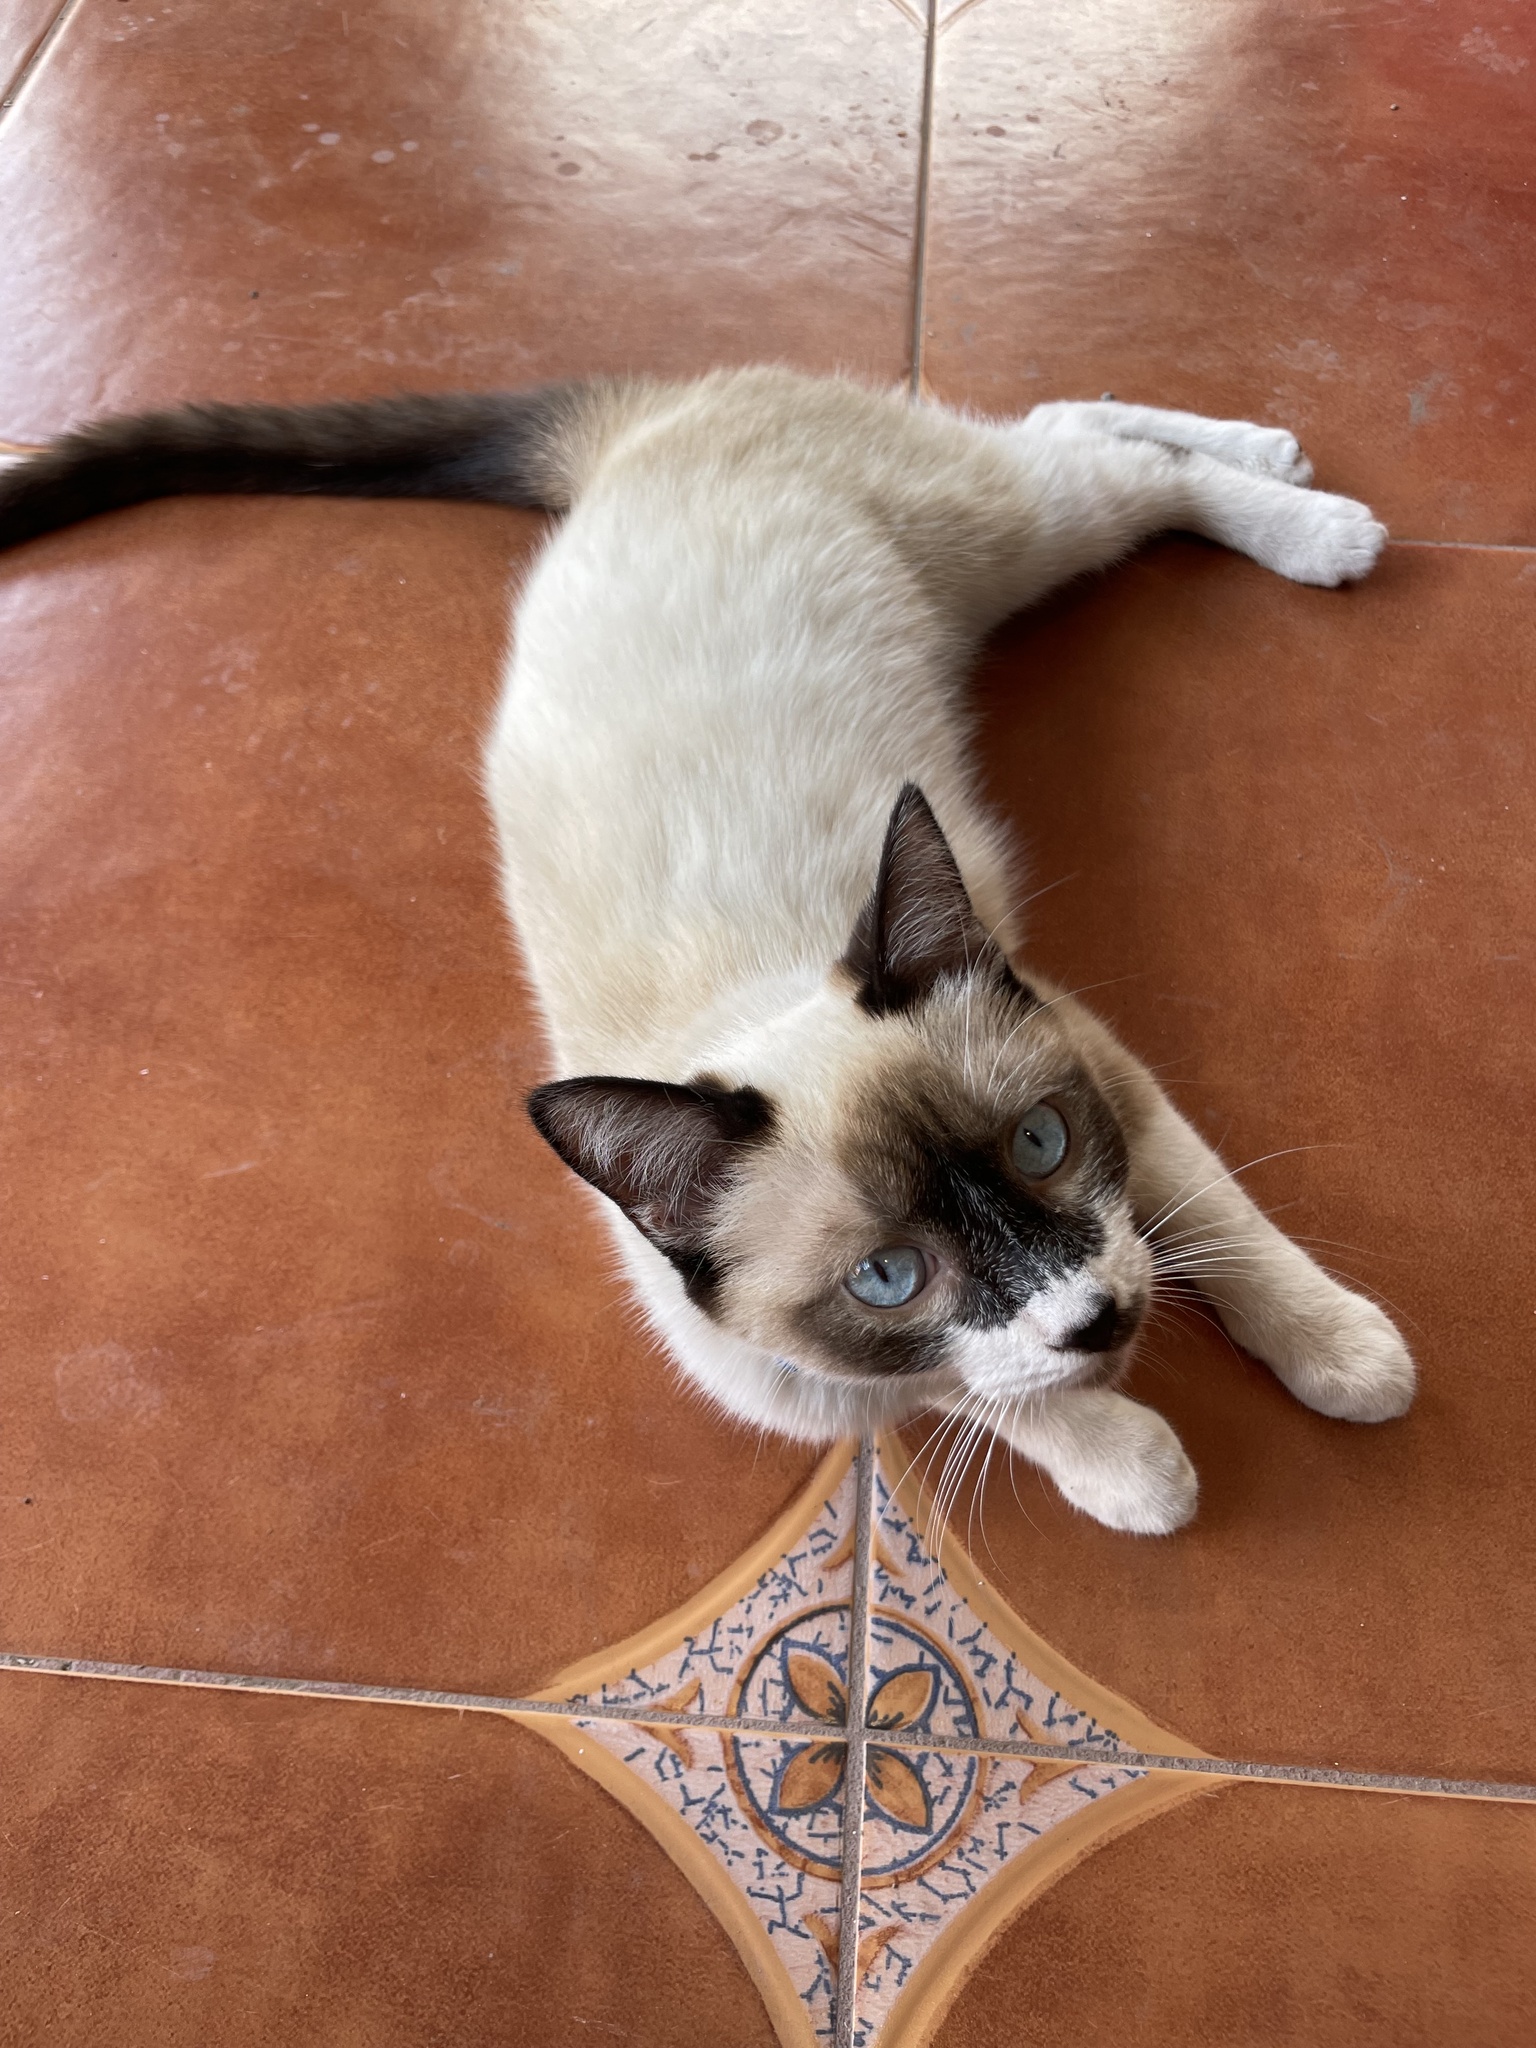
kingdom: Animalia
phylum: Chordata
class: Mammalia
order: Carnivora
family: Felidae
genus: Felis
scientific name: Felis catus
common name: Domestic cat
